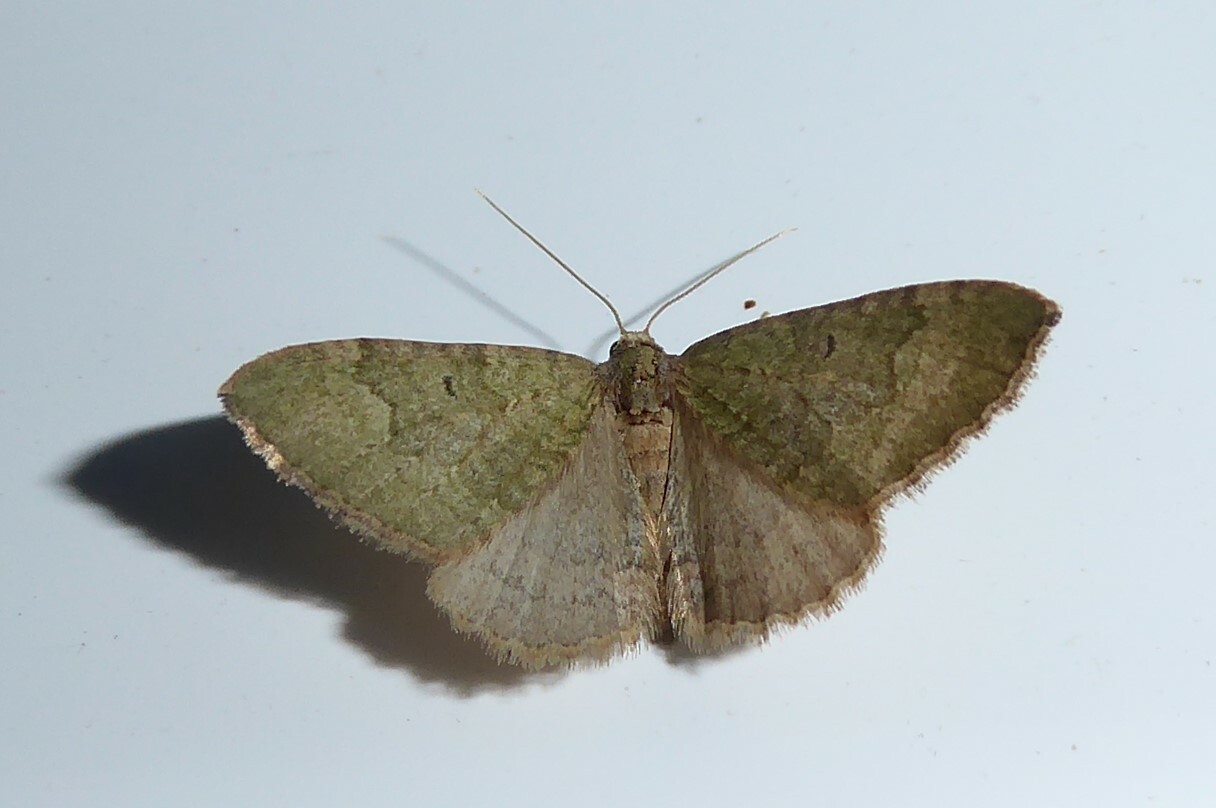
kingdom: Animalia
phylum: Arthropoda
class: Insecta
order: Lepidoptera
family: Geometridae
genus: Epyaxa
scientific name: Epyaxa rosearia
